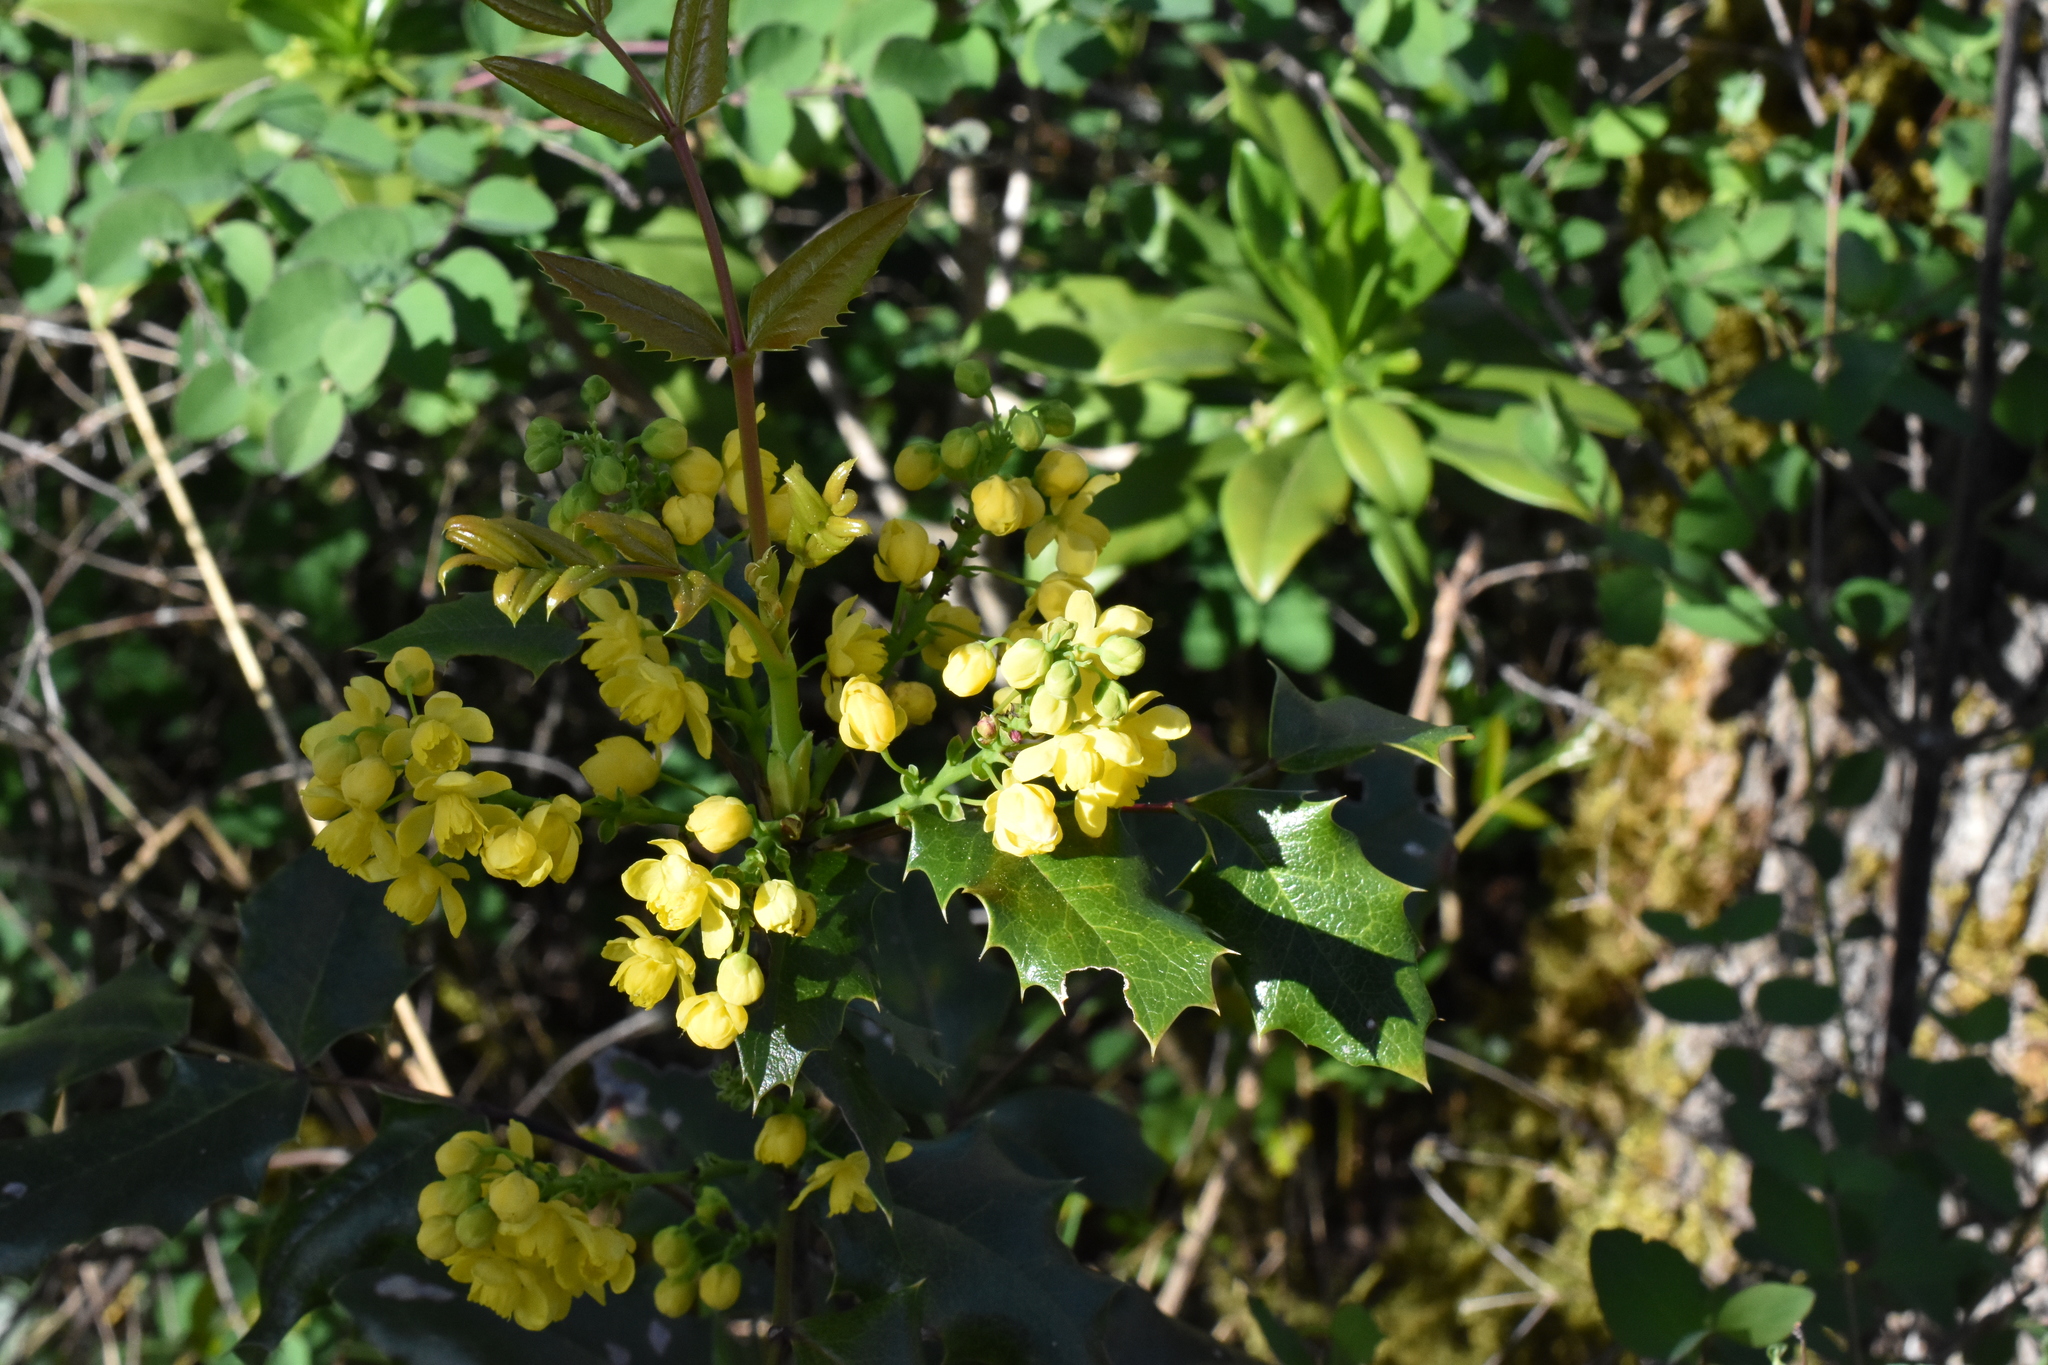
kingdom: Plantae
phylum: Tracheophyta
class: Magnoliopsida
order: Ranunculales
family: Berberidaceae
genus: Mahonia
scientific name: Mahonia aquifolium
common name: Oregon-grape
